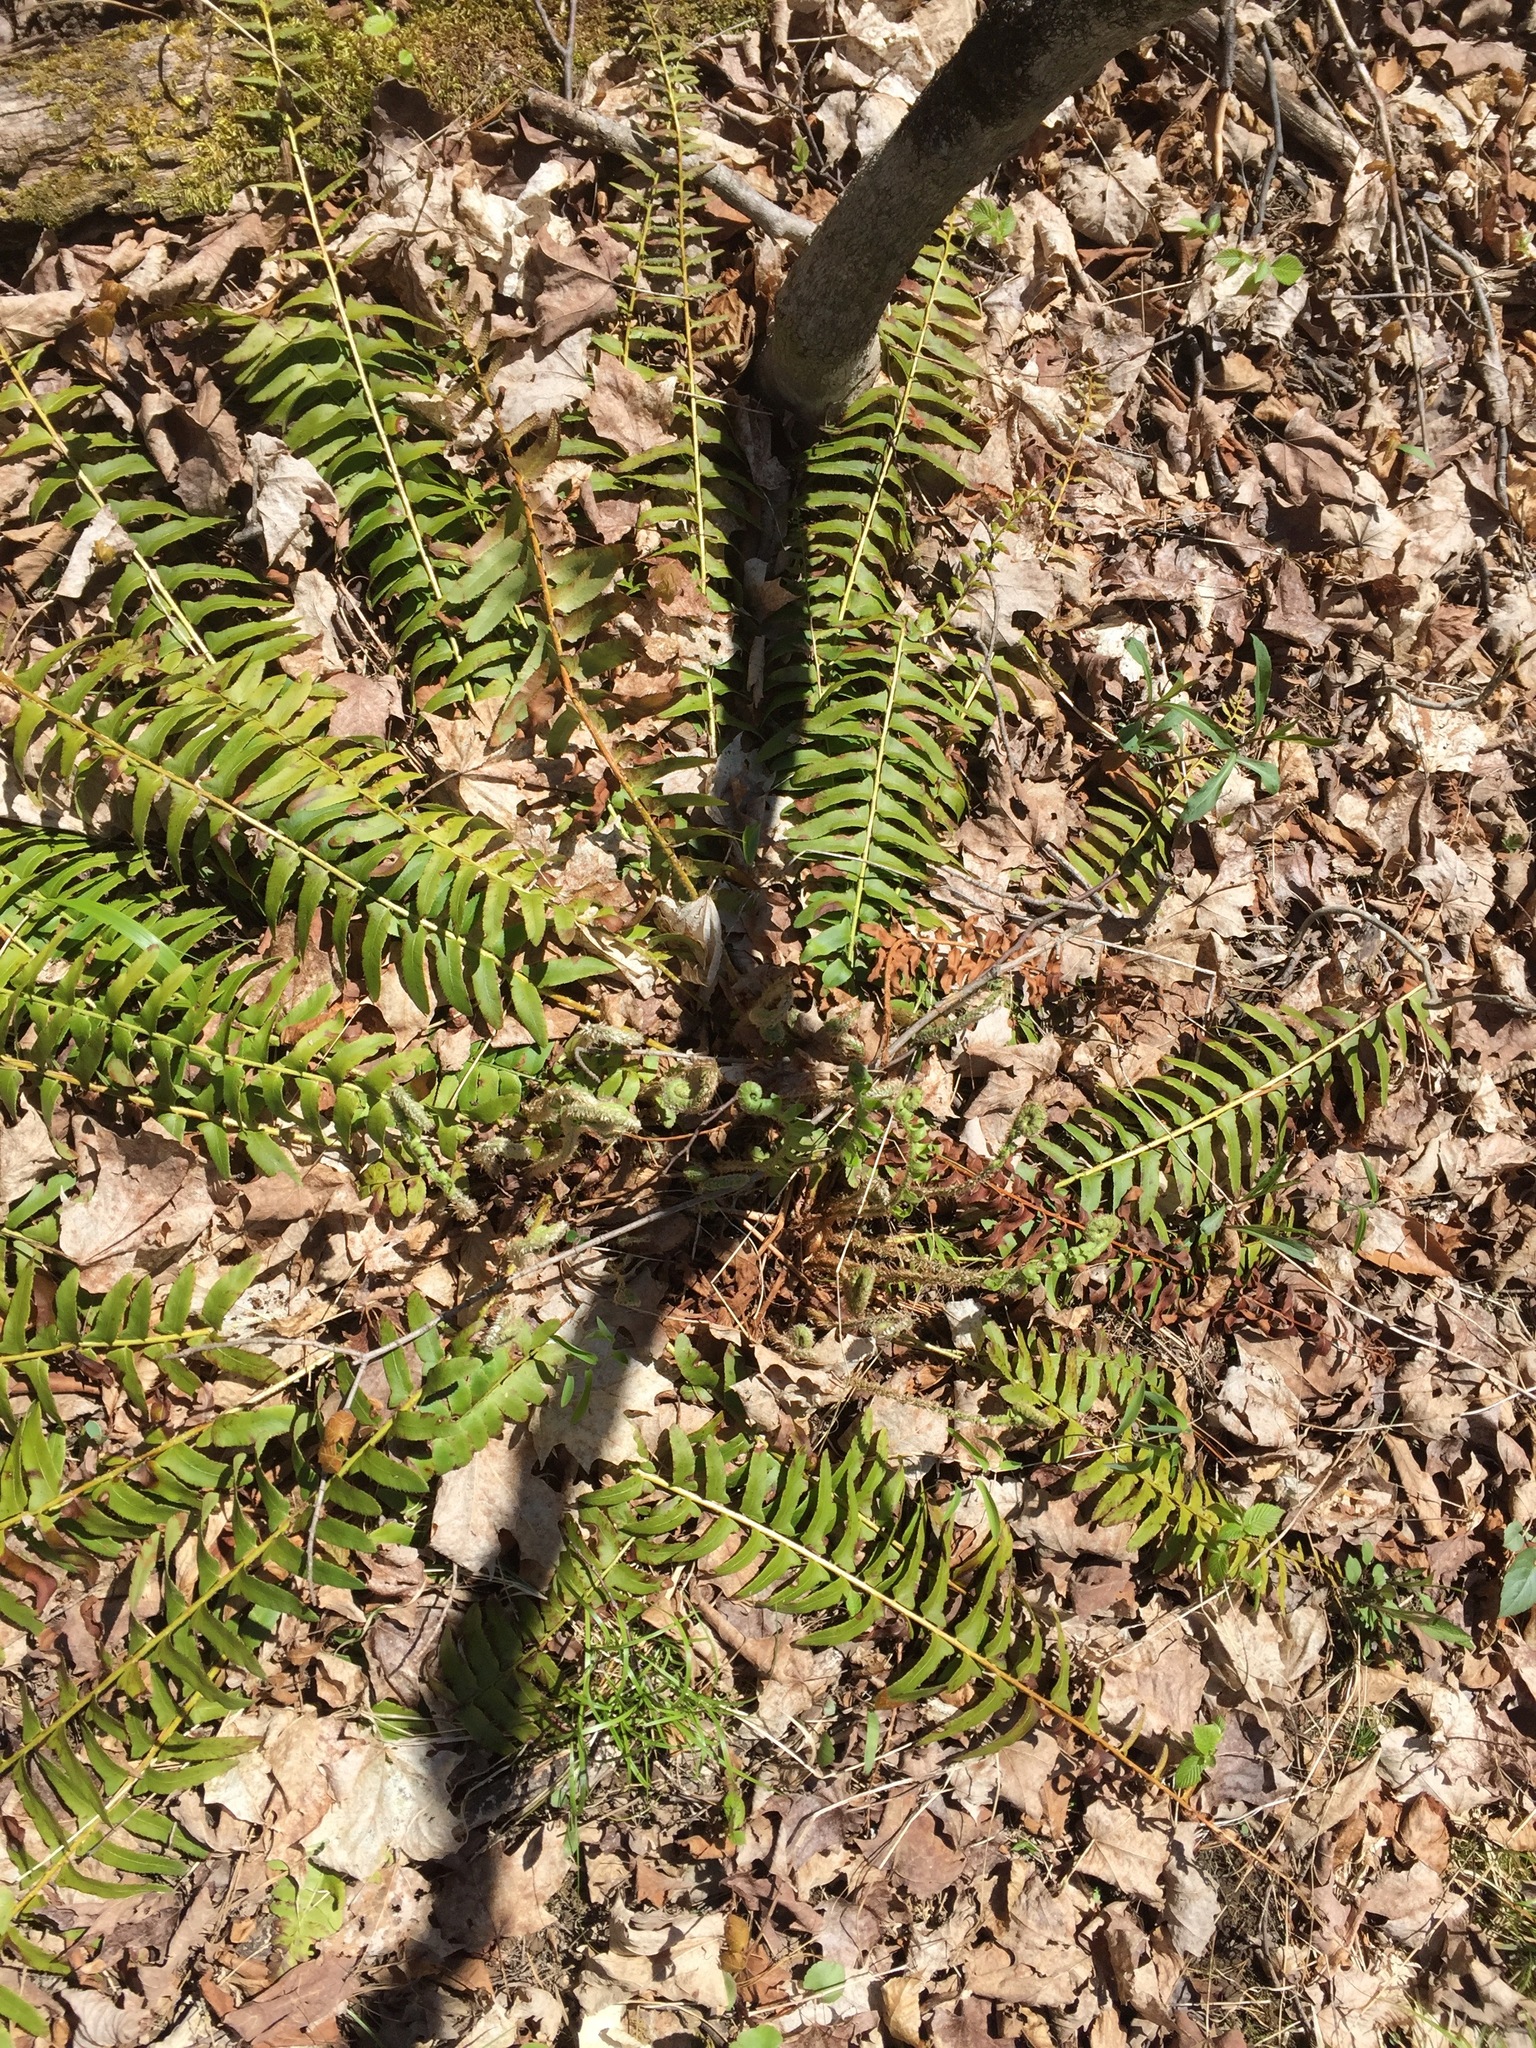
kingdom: Plantae
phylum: Tracheophyta
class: Polypodiopsida
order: Polypodiales
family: Dryopteridaceae
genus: Polystichum
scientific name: Polystichum acrostichoides
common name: Christmas fern
